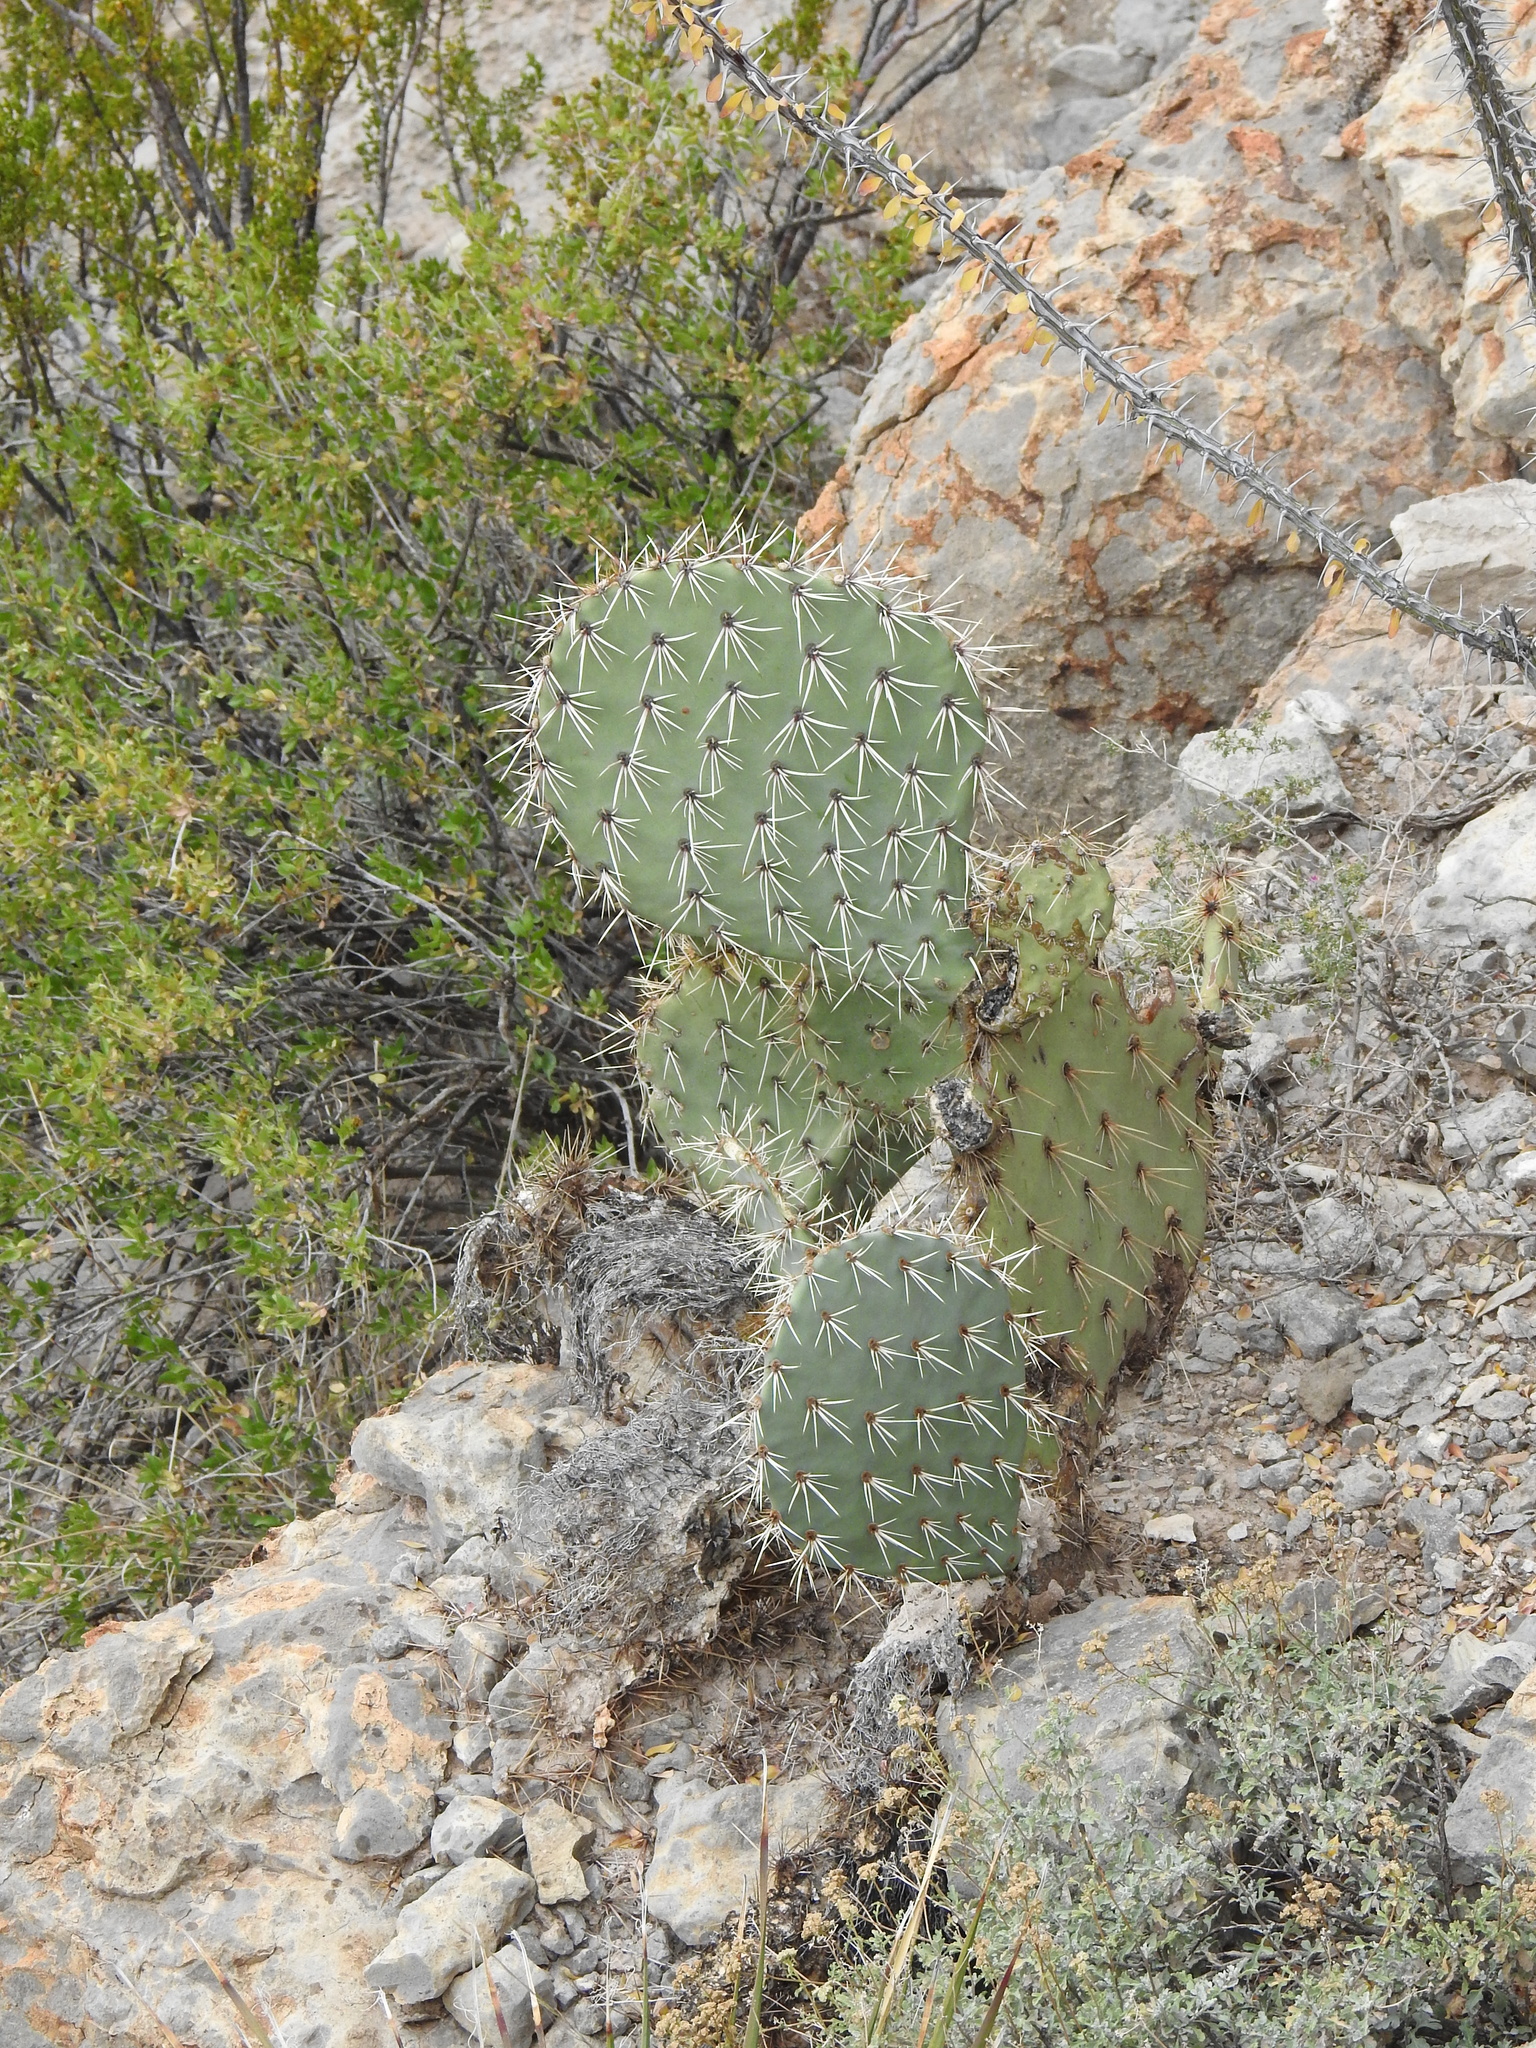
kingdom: Plantae
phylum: Tracheophyta
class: Magnoliopsida
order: Caryophyllales
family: Cactaceae
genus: Opuntia
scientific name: Opuntia engelmannii
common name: Cactus-apple
